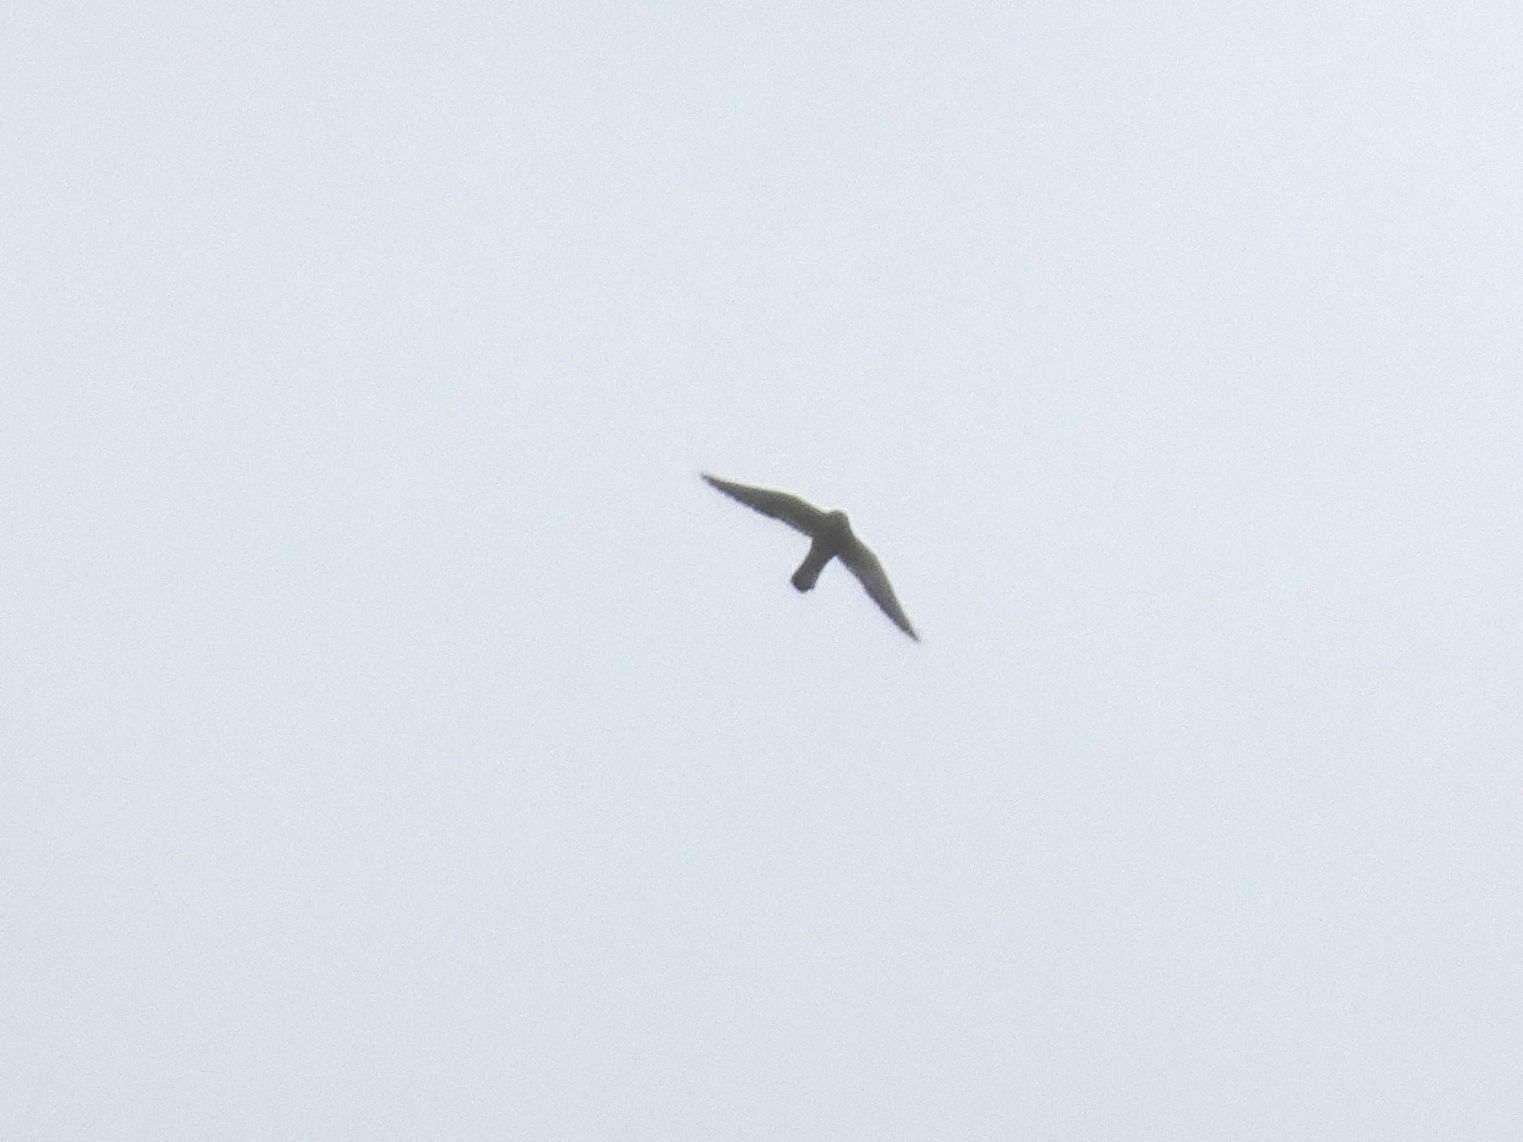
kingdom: Animalia
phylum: Chordata
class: Aves
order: Falconiformes
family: Falconidae
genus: Falco
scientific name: Falco rupicolus
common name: Rock kestrel
